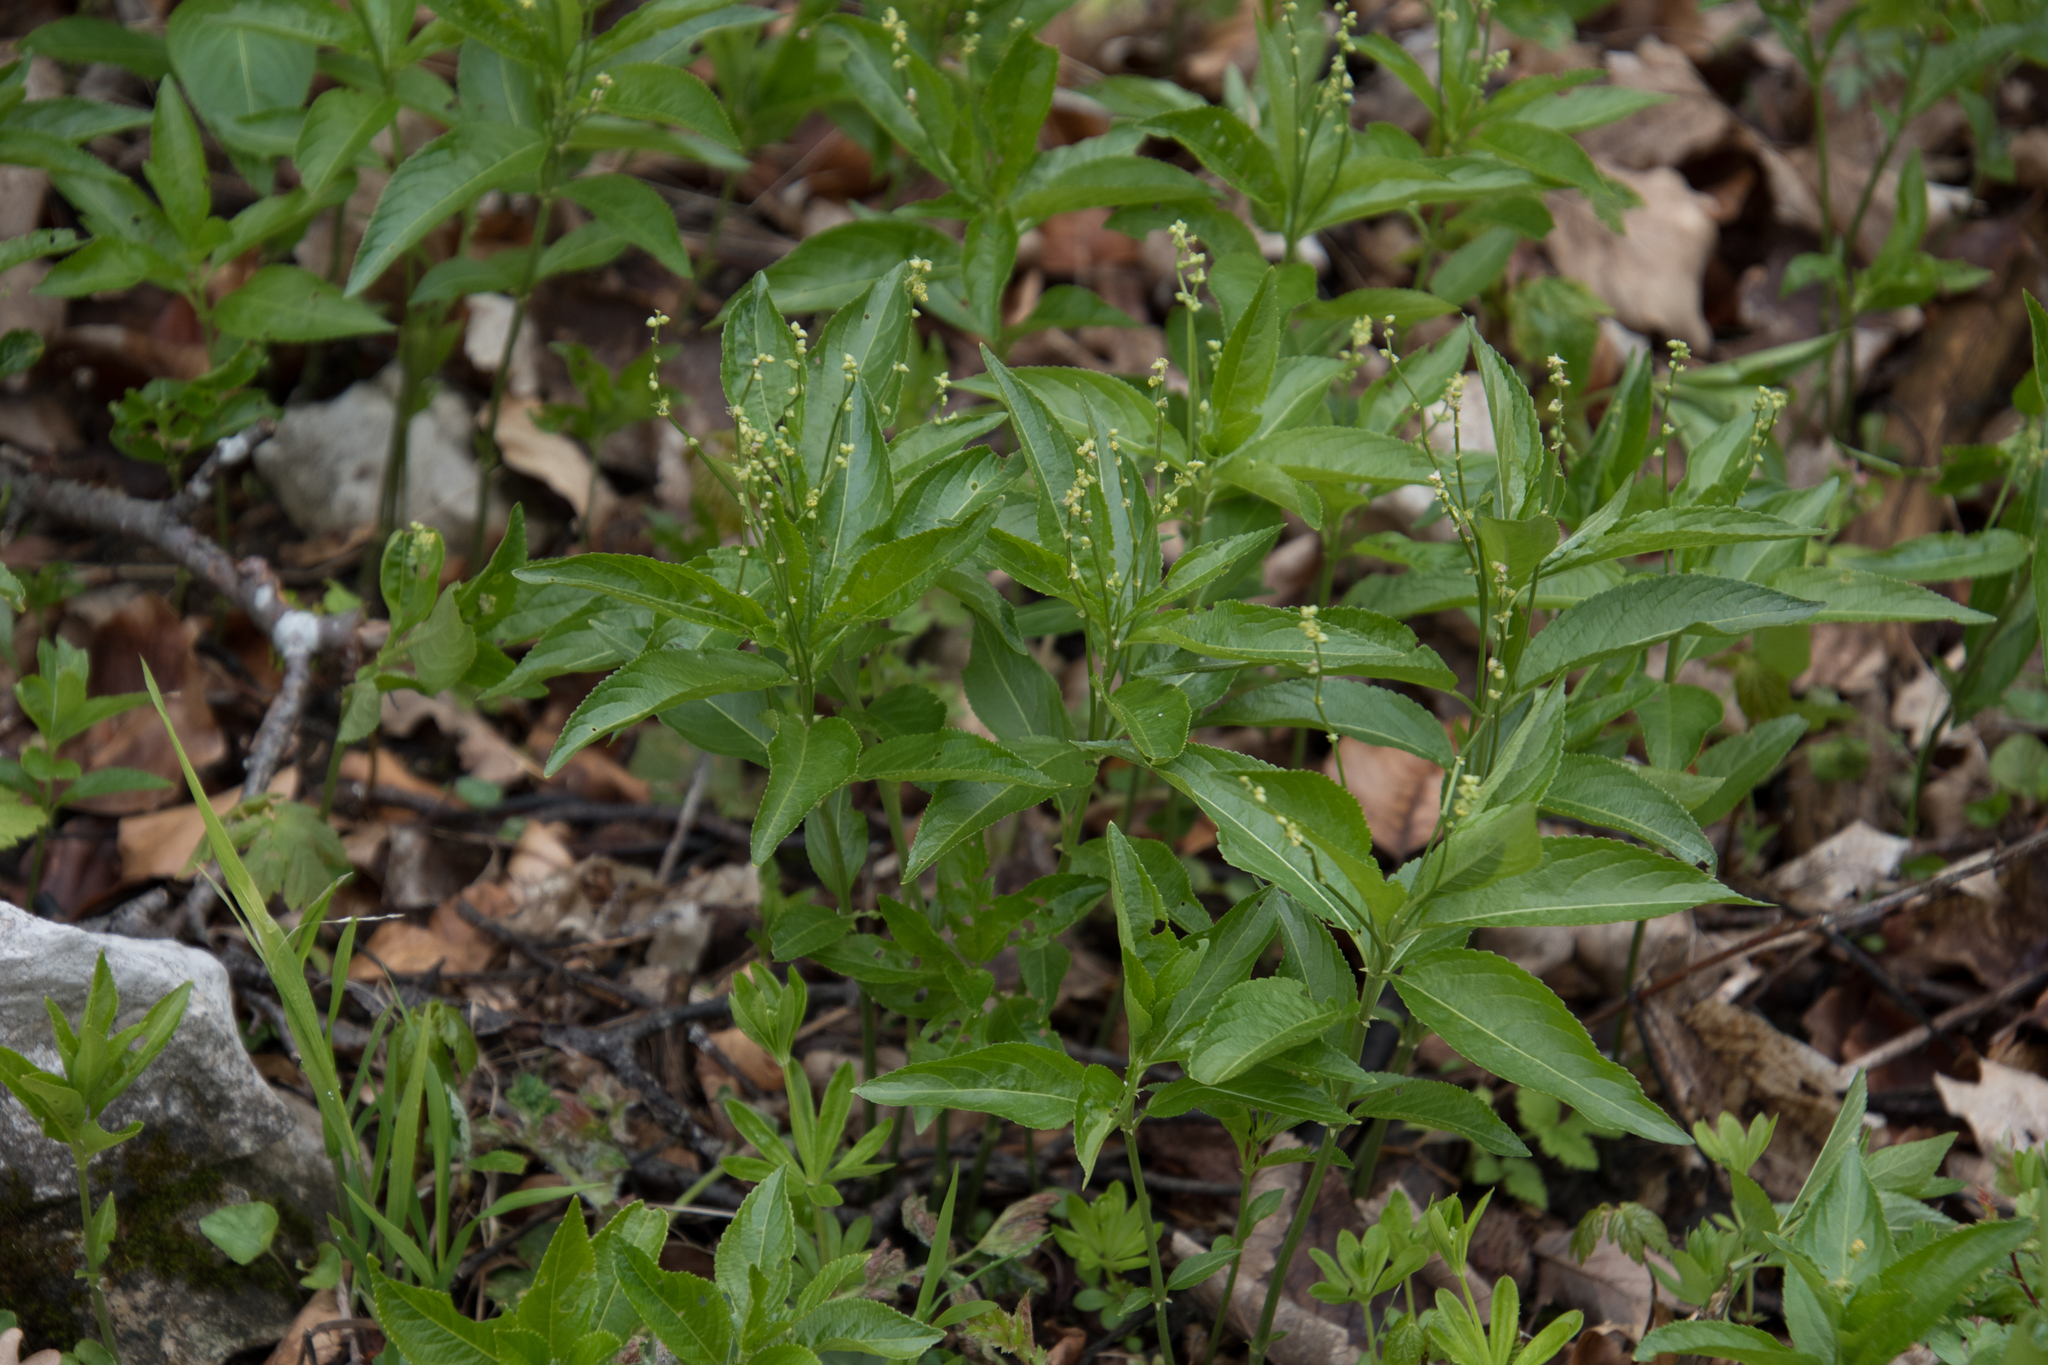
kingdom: Plantae
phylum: Tracheophyta
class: Magnoliopsida
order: Malpighiales
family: Euphorbiaceae
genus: Mercurialis
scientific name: Mercurialis perennis
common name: Dog mercury
